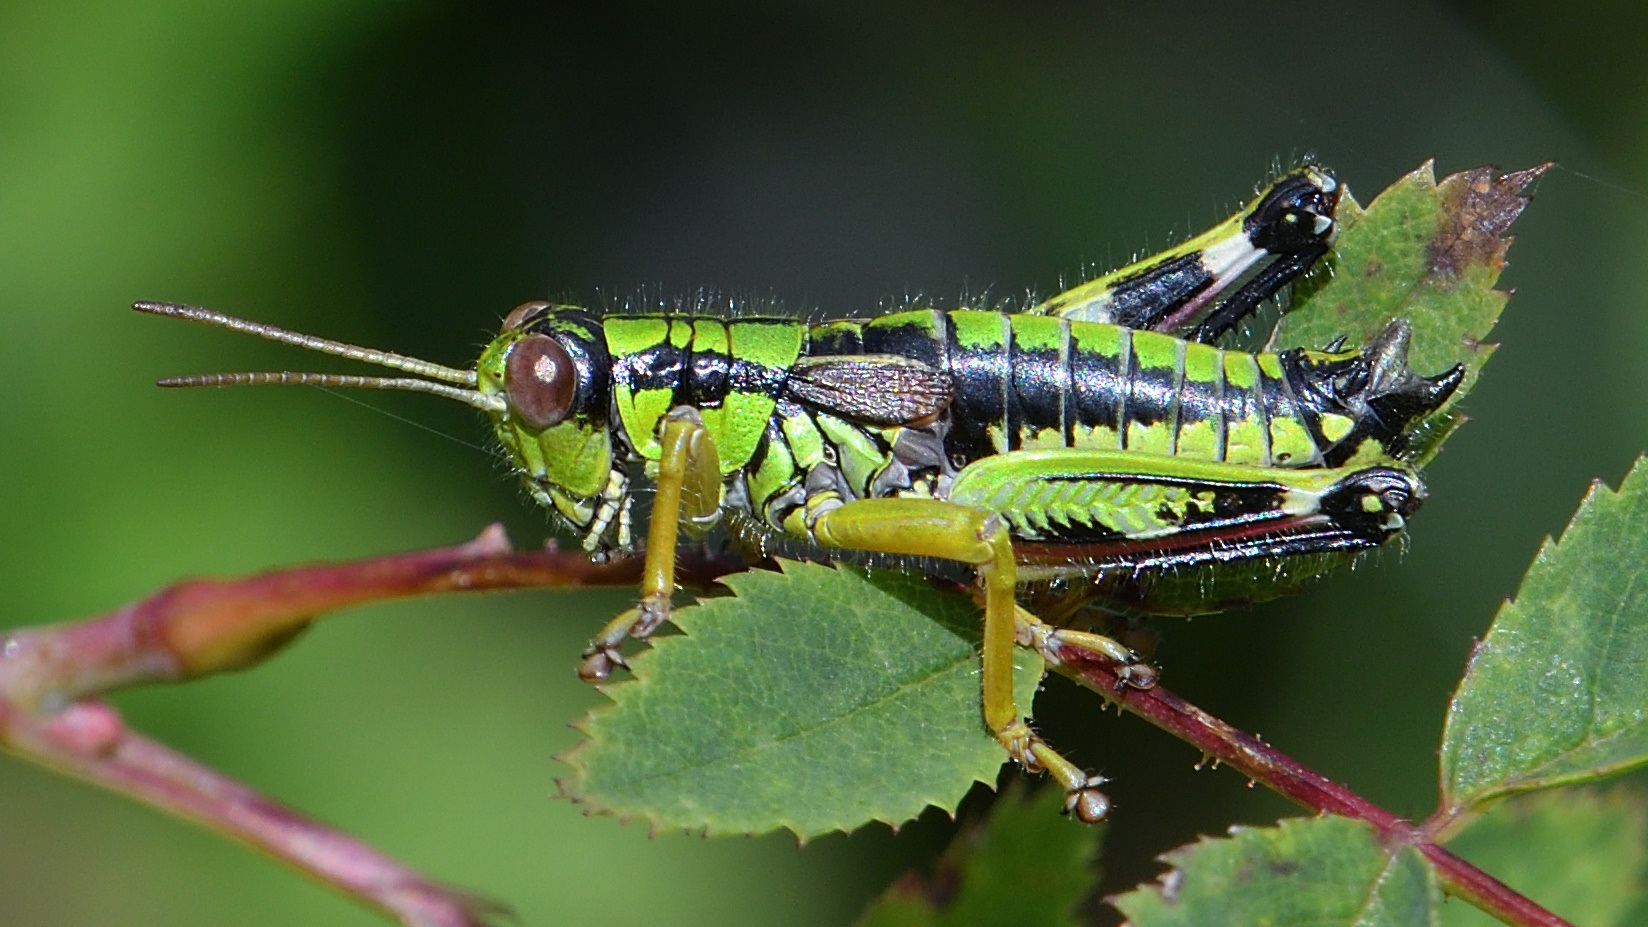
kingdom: Animalia
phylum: Arthropoda
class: Insecta
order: Orthoptera
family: Acrididae
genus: Miramella
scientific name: Miramella alpina
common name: Green mountain grasshopper
